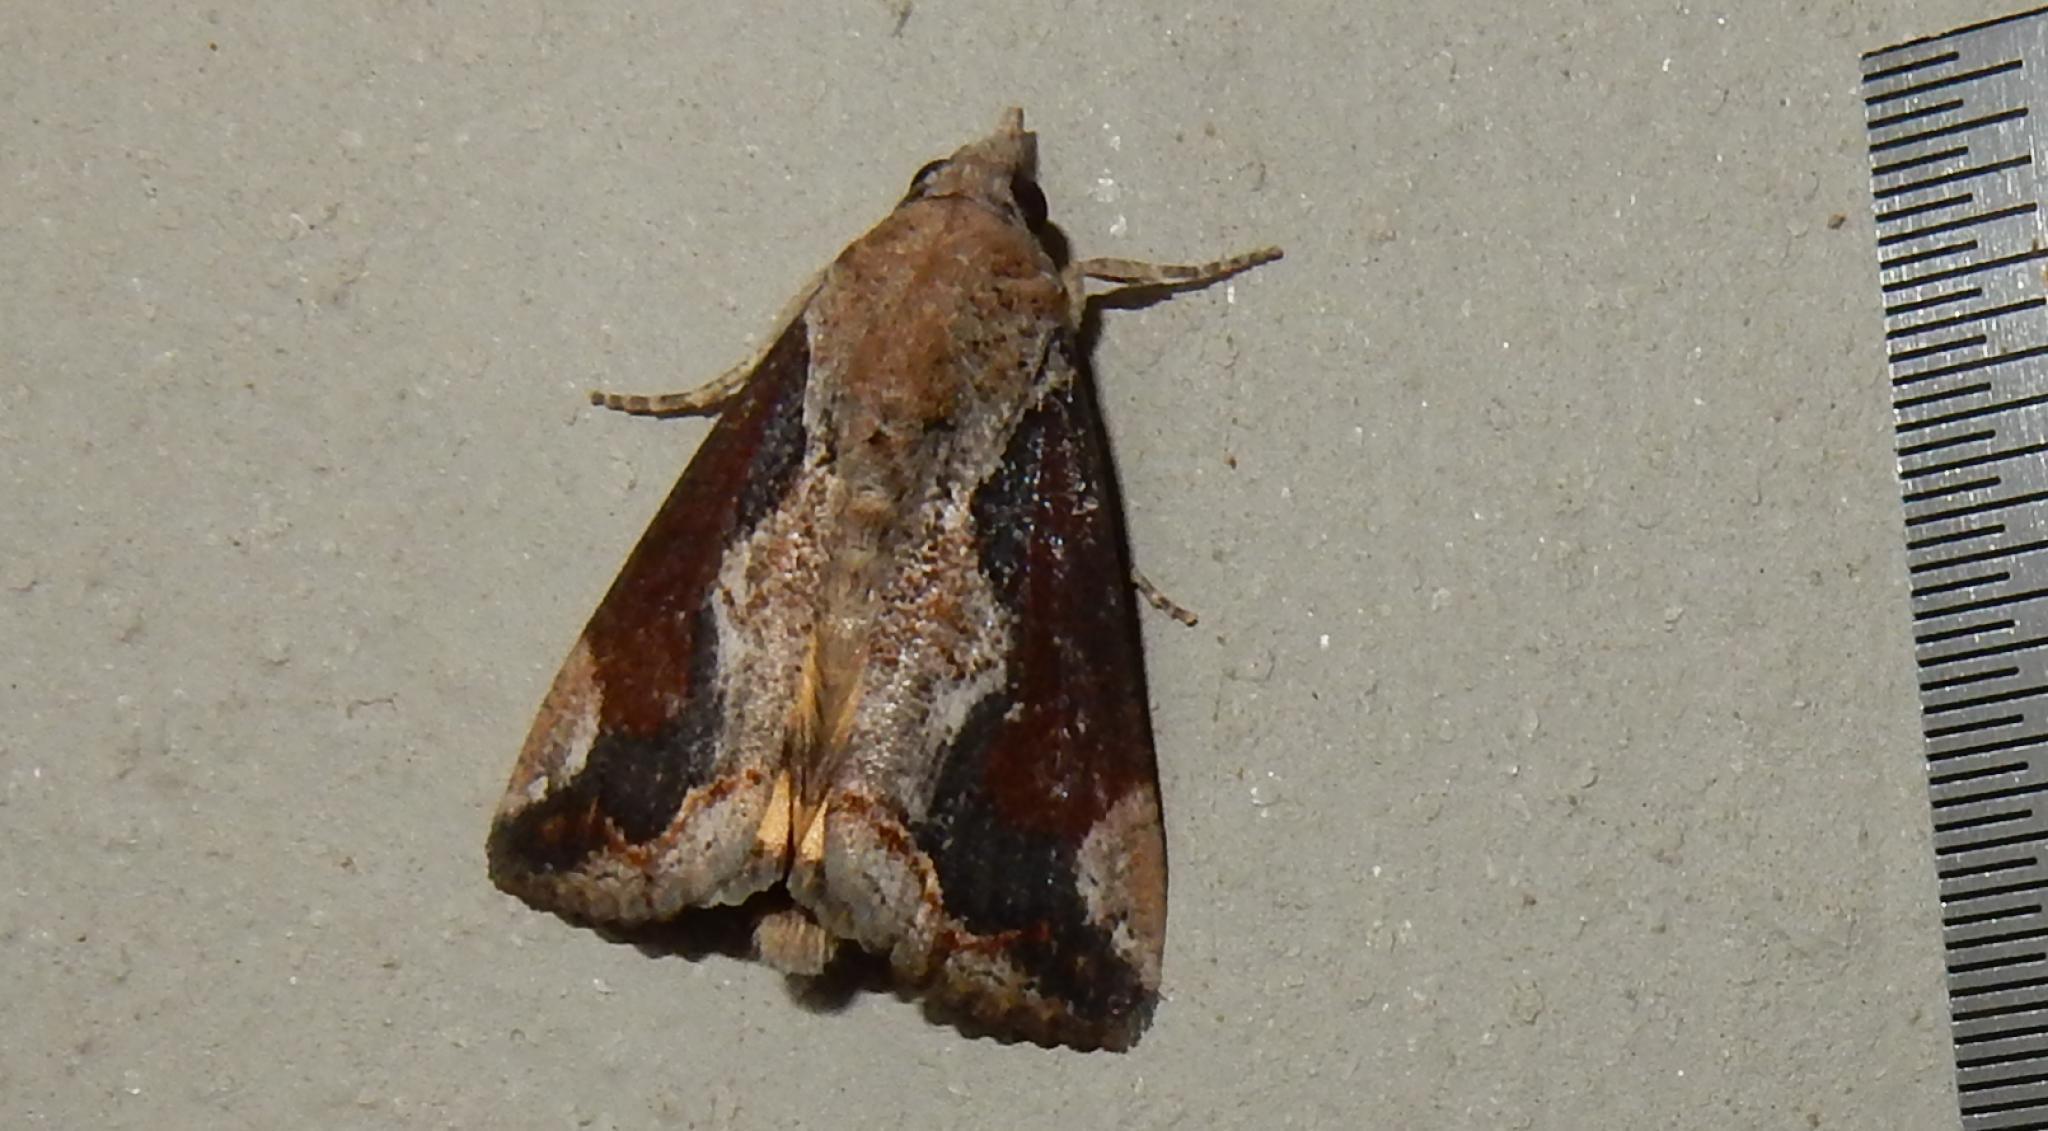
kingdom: Animalia
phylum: Arthropoda
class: Insecta
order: Lepidoptera
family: Erebidae
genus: Hypocala
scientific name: Hypocala rostrata
